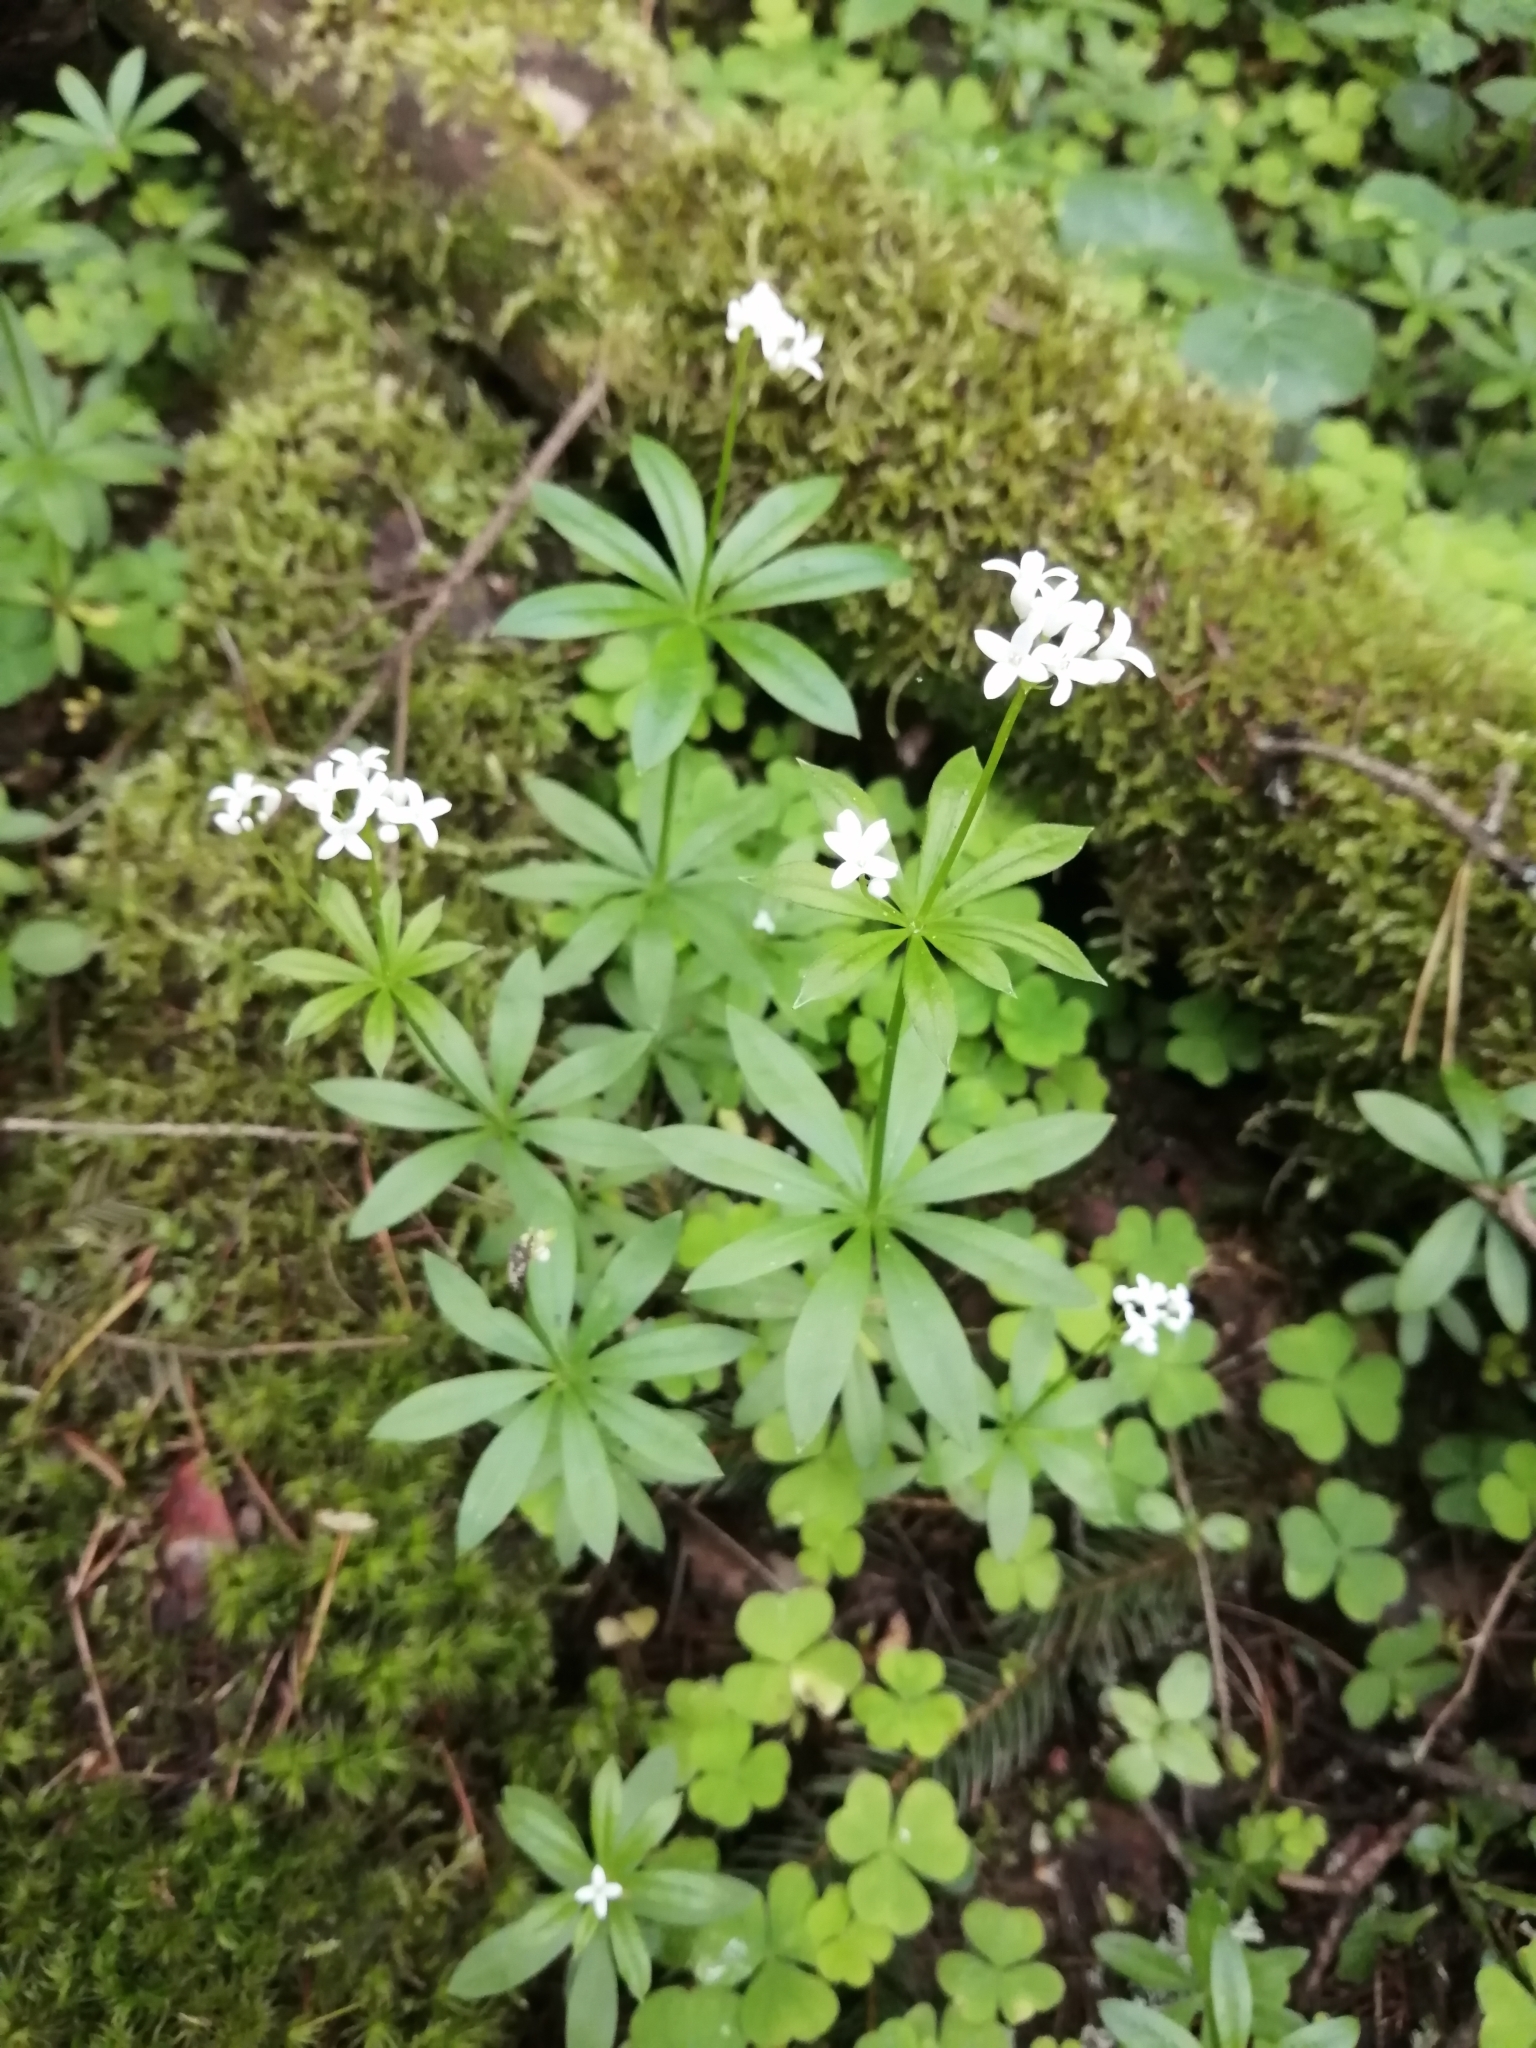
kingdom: Plantae
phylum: Tracheophyta
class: Magnoliopsida
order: Gentianales
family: Rubiaceae
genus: Galium
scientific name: Galium odoratum
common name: Sweet woodruff
